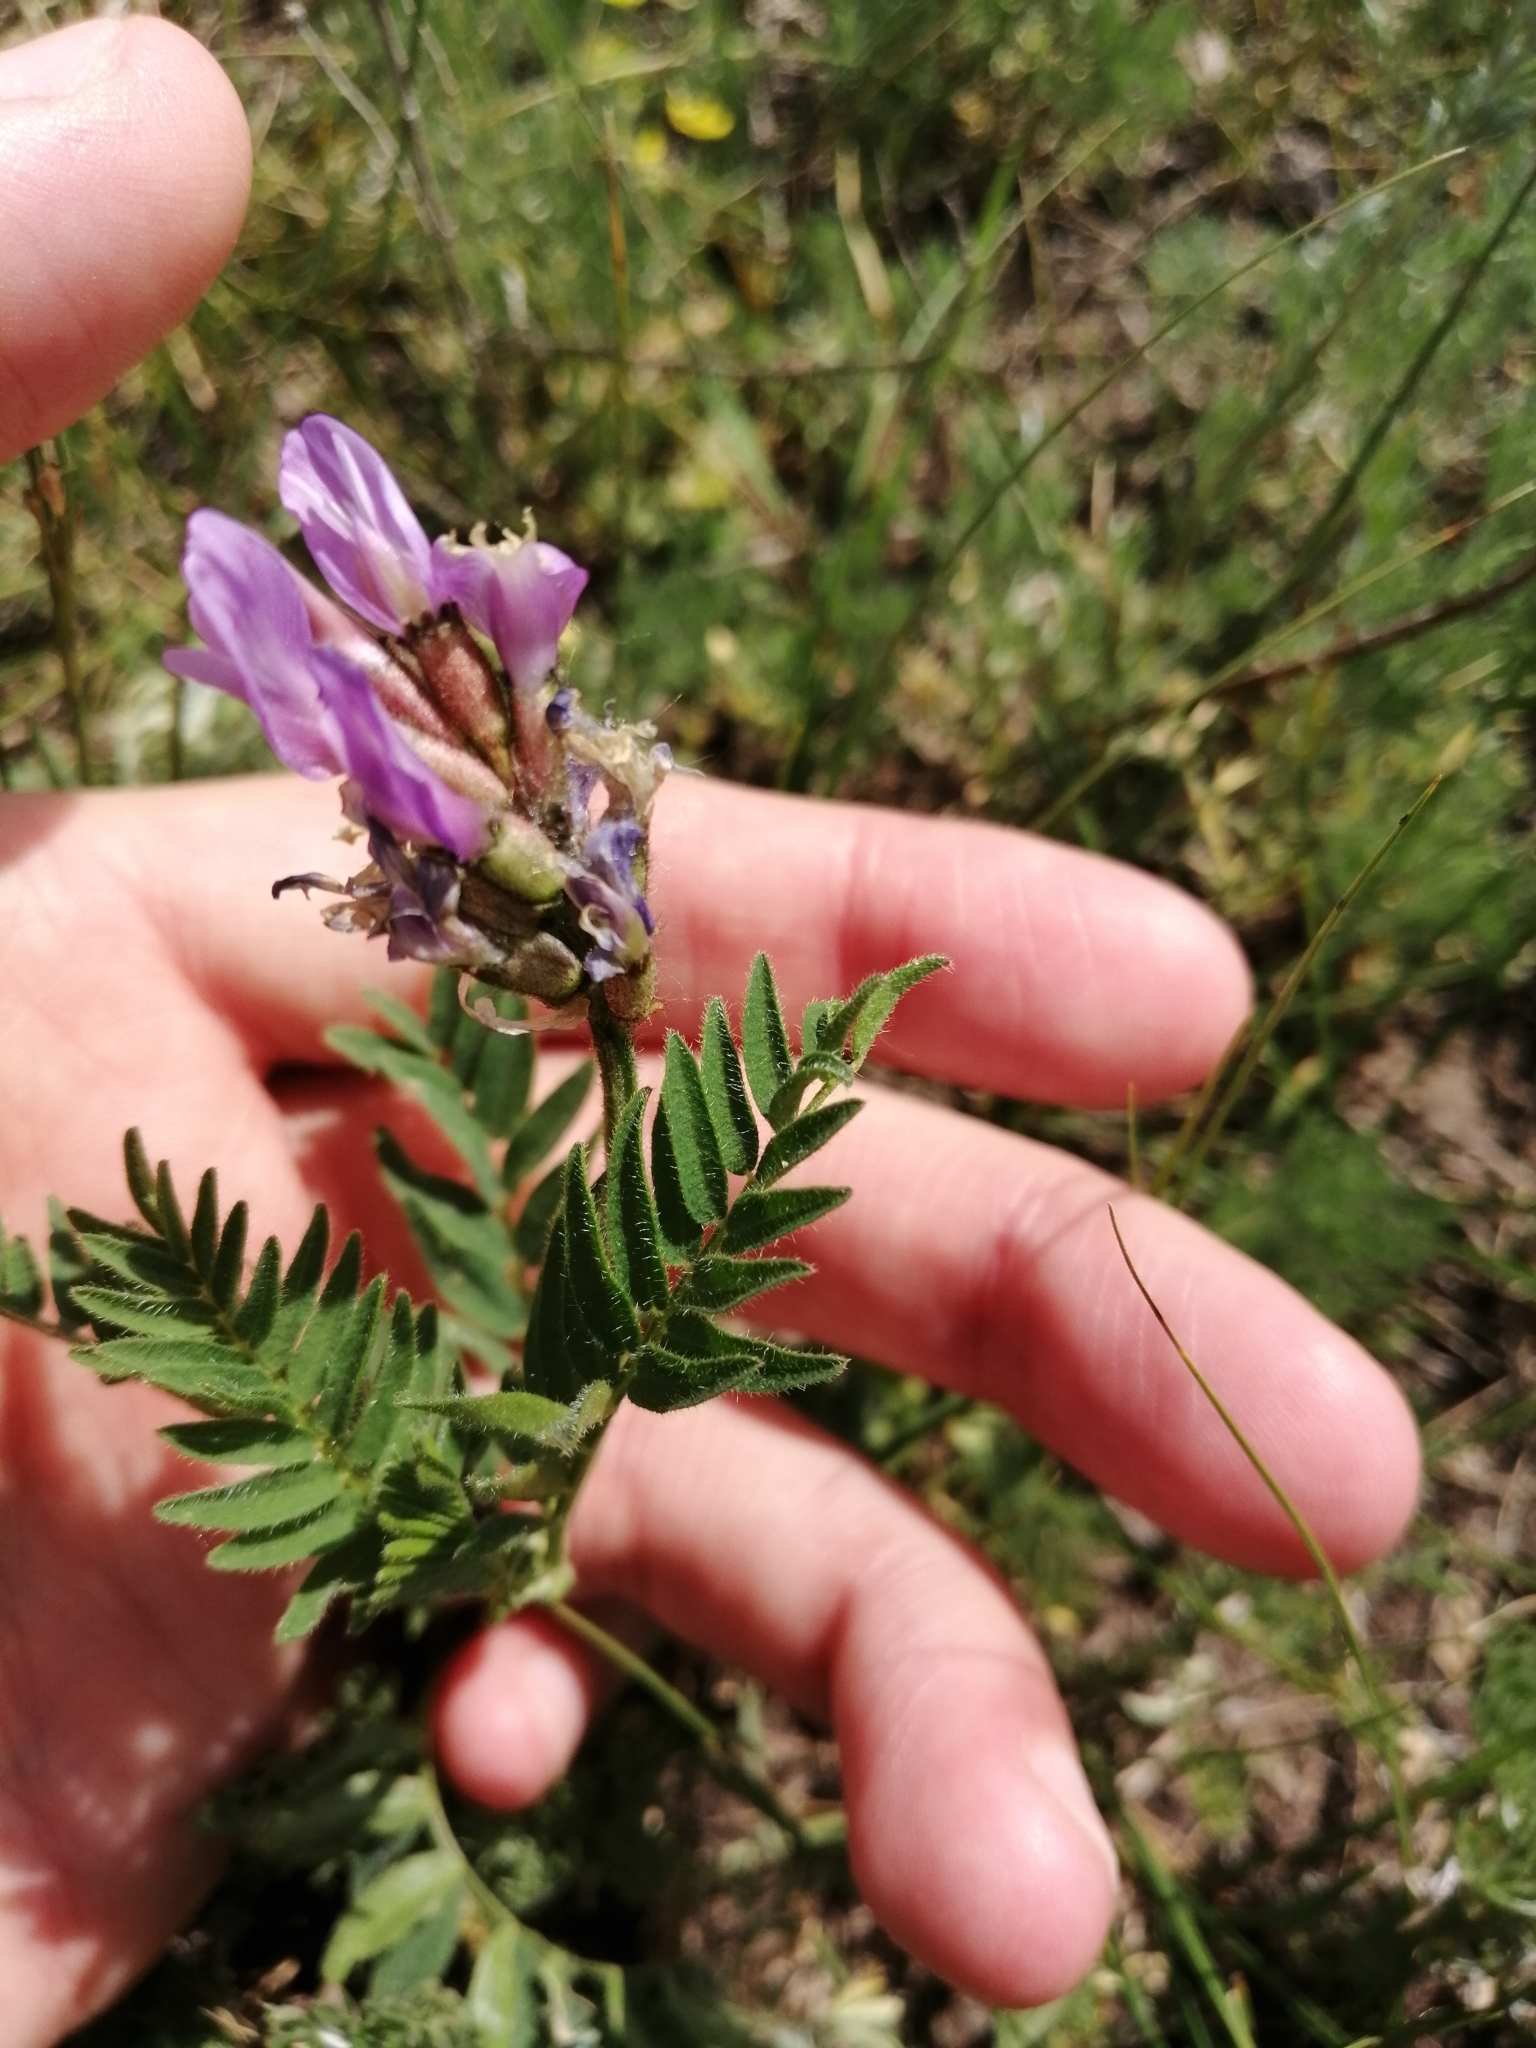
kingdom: Plantae
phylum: Tracheophyta
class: Magnoliopsida
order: Fabales
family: Fabaceae
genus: Astragalus
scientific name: Astragalus danicus
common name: Purple milk-vetch
